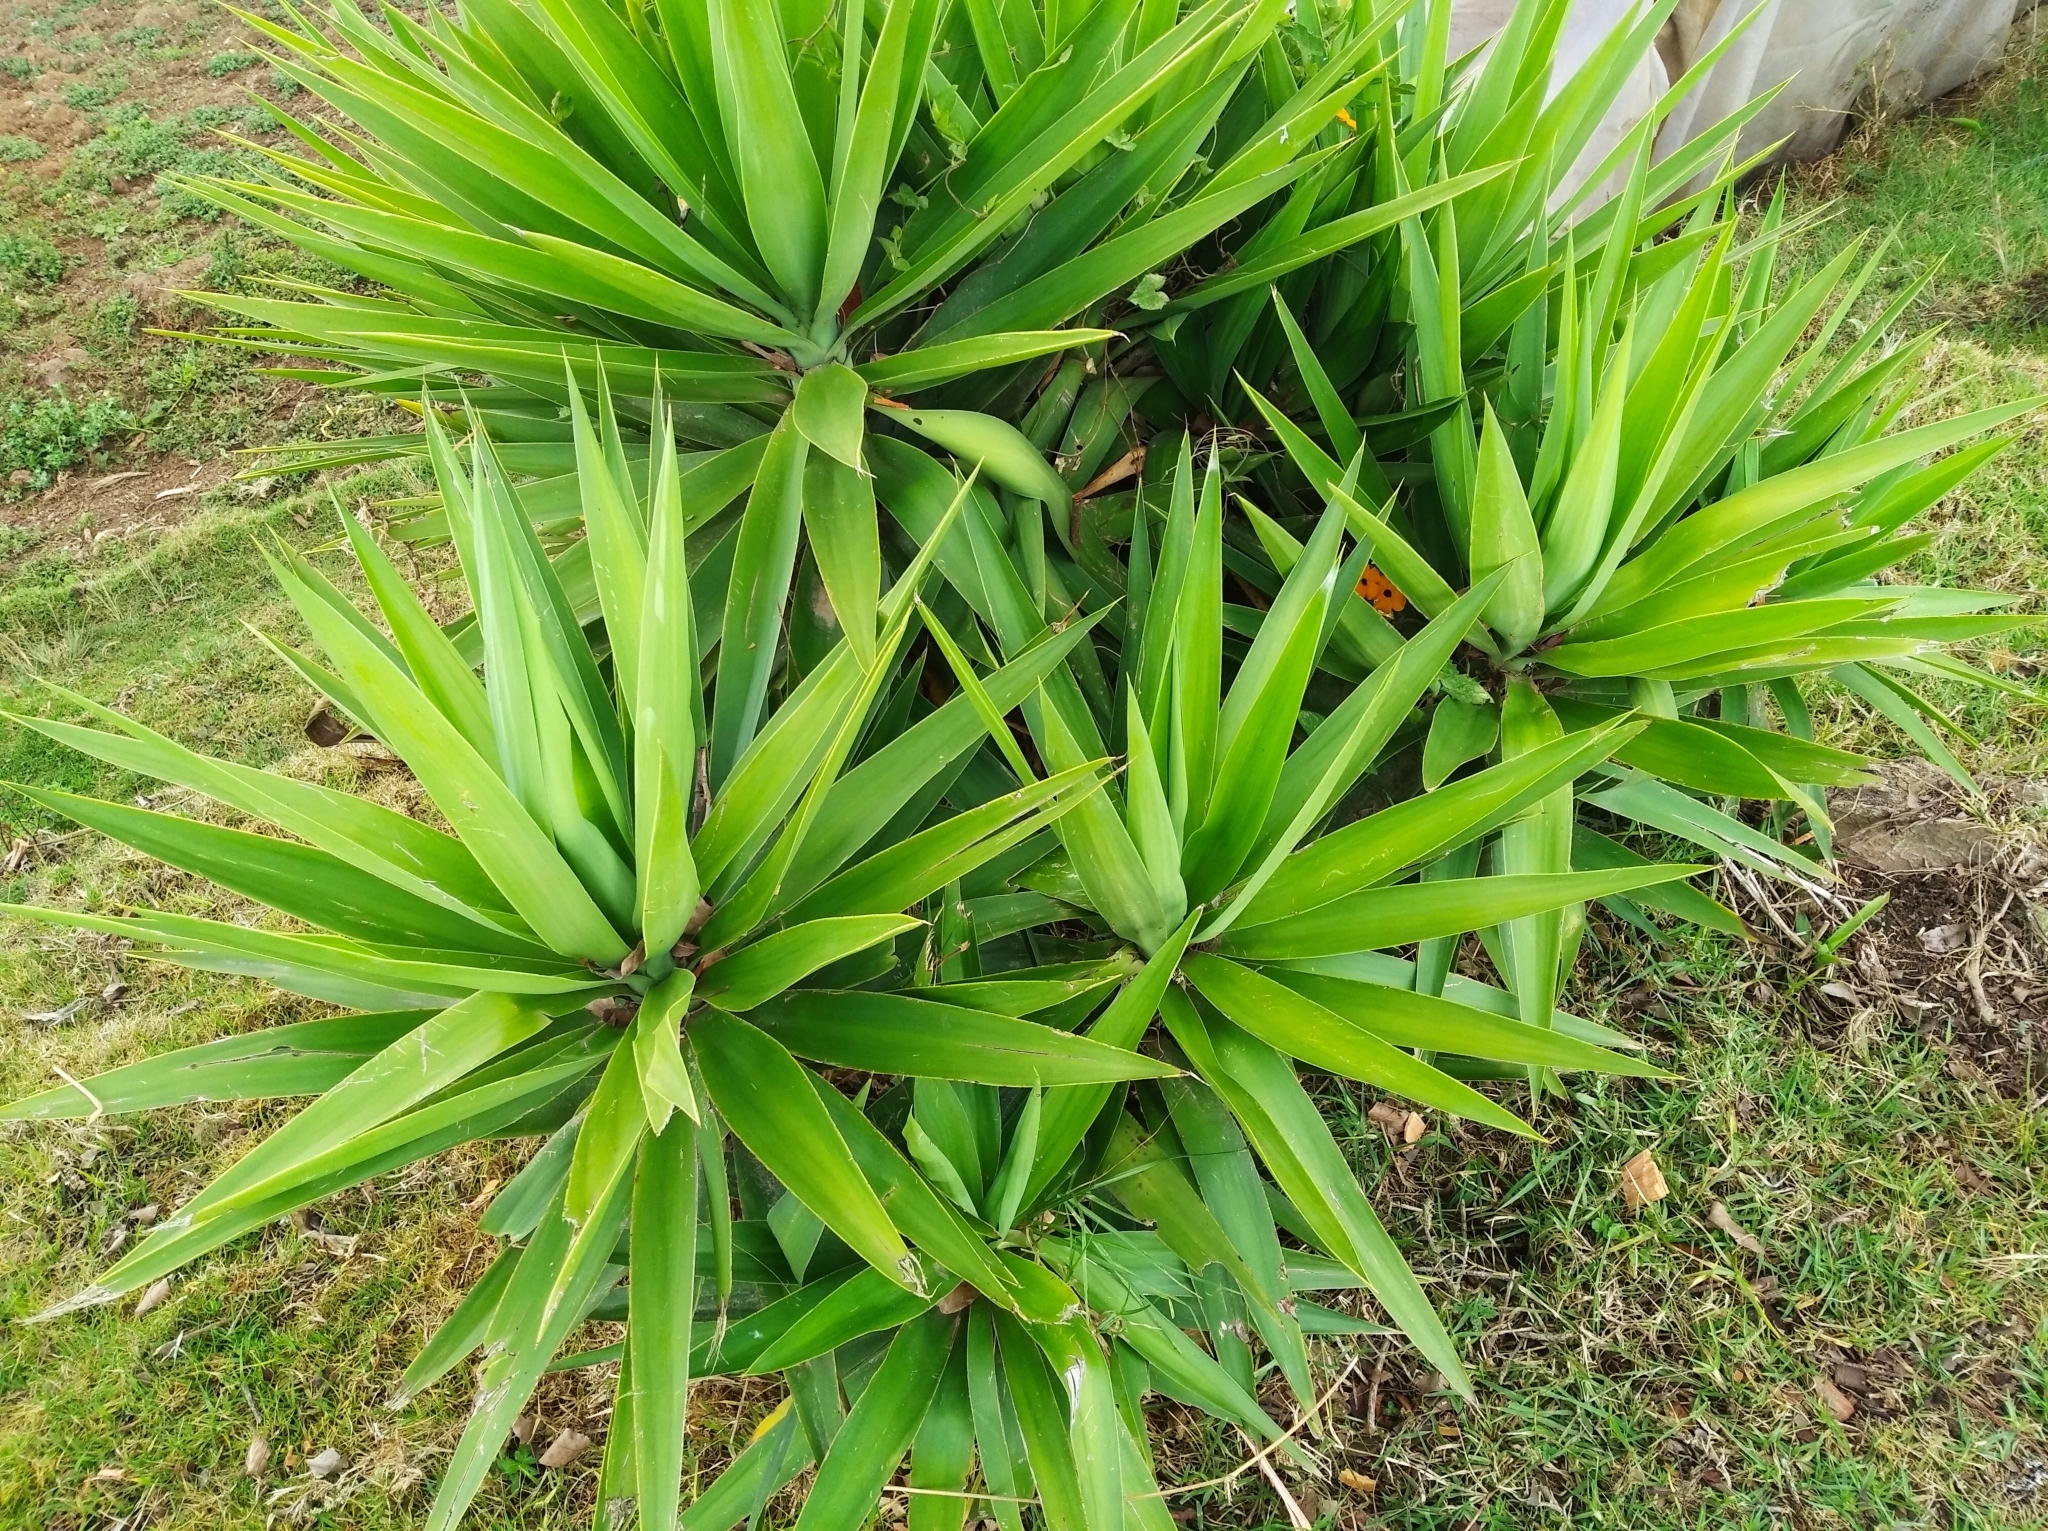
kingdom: Plantae
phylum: Tracheophyta
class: Liliopsida
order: Asparagales
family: Asparagaceae
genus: Yucca
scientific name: Yucca gigantea
